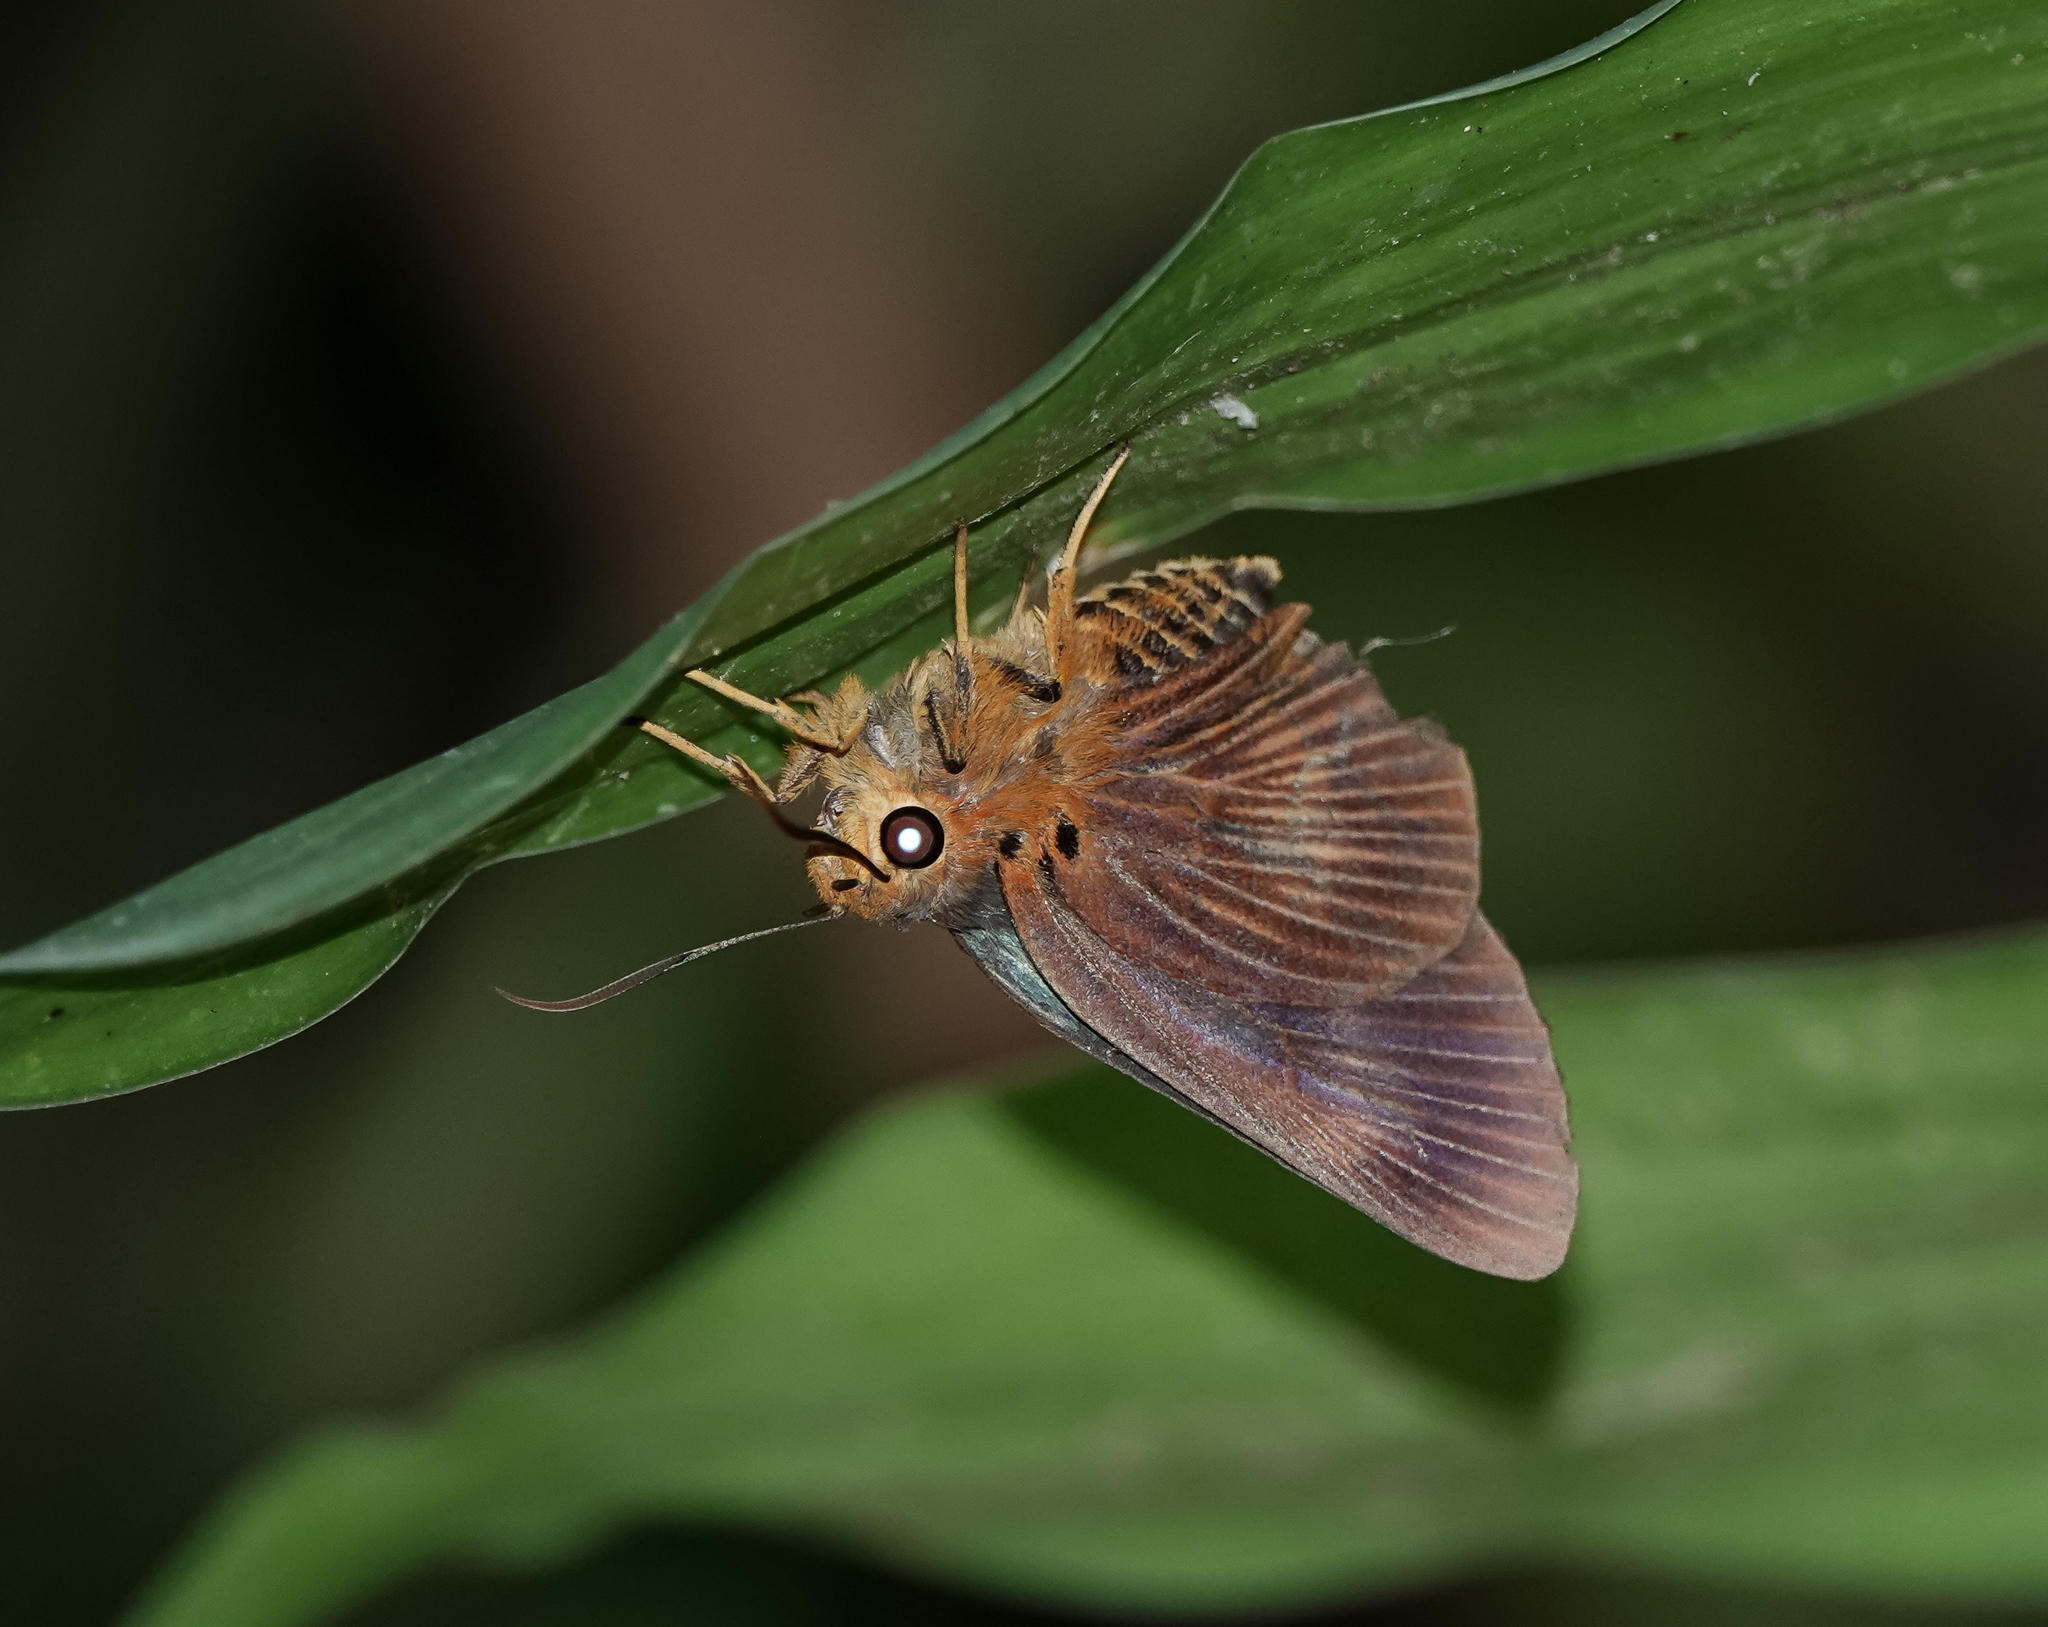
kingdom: Animalia
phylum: Arthropoda
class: Insecta
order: Lepidoptera
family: Hesperiidae
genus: Bibasis
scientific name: Bibasis harisa
